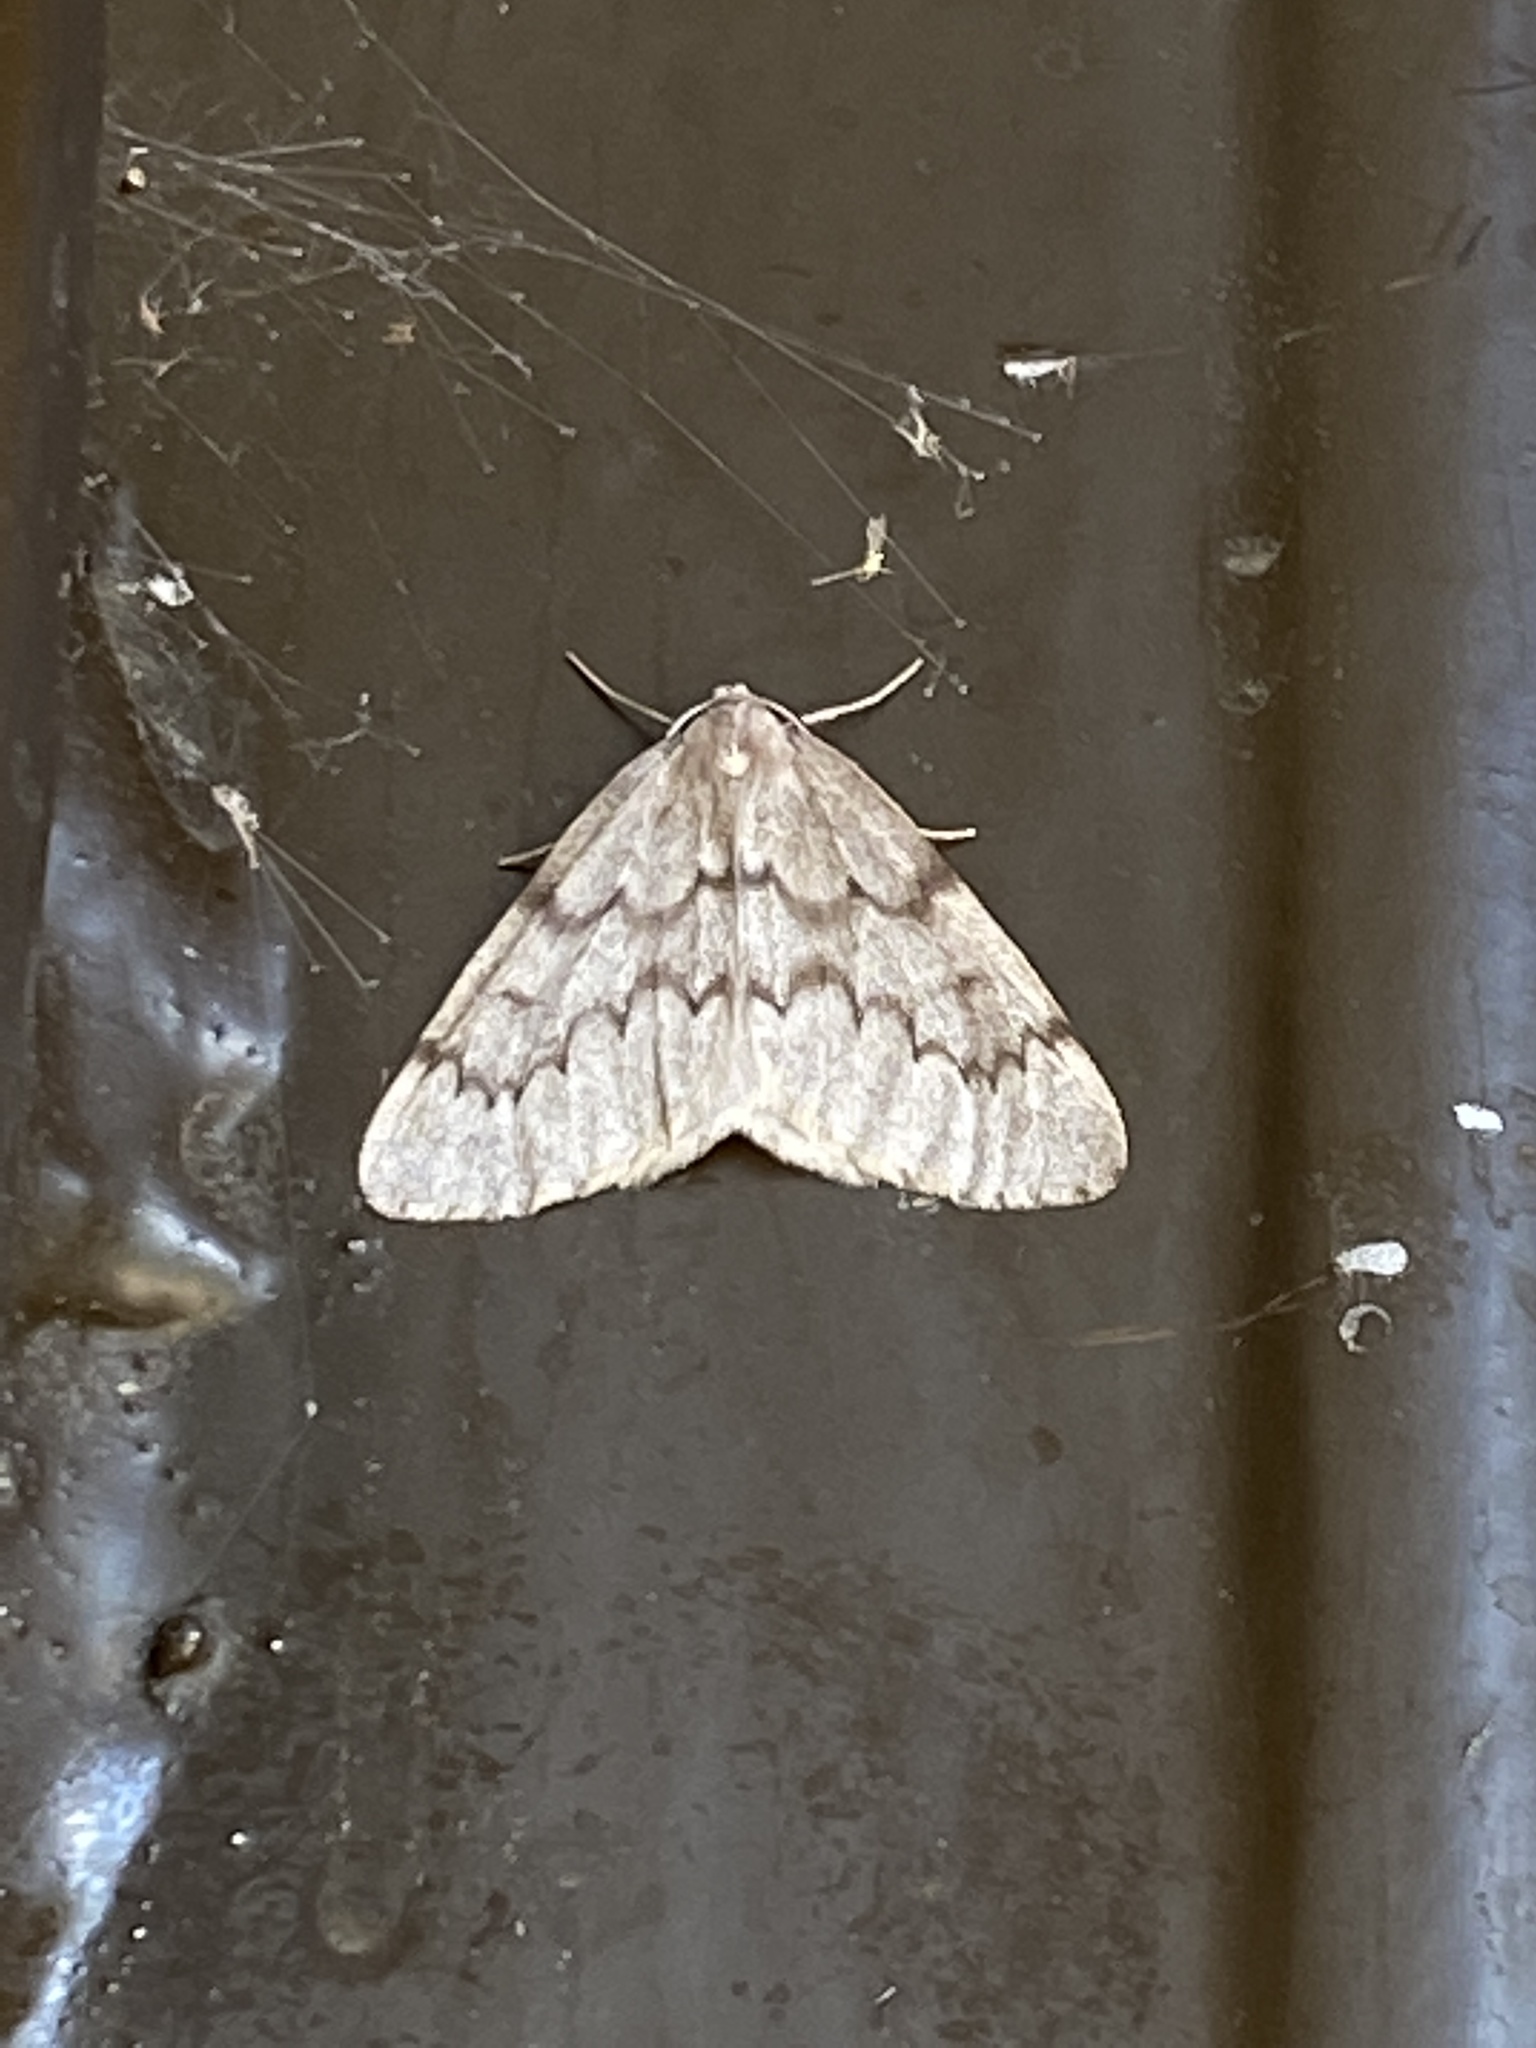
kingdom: Animalia
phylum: Arthropoda
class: Insecta
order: Lepidoptera
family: Geometridae
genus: Nepytia
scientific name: Nepytia pellucidaria
